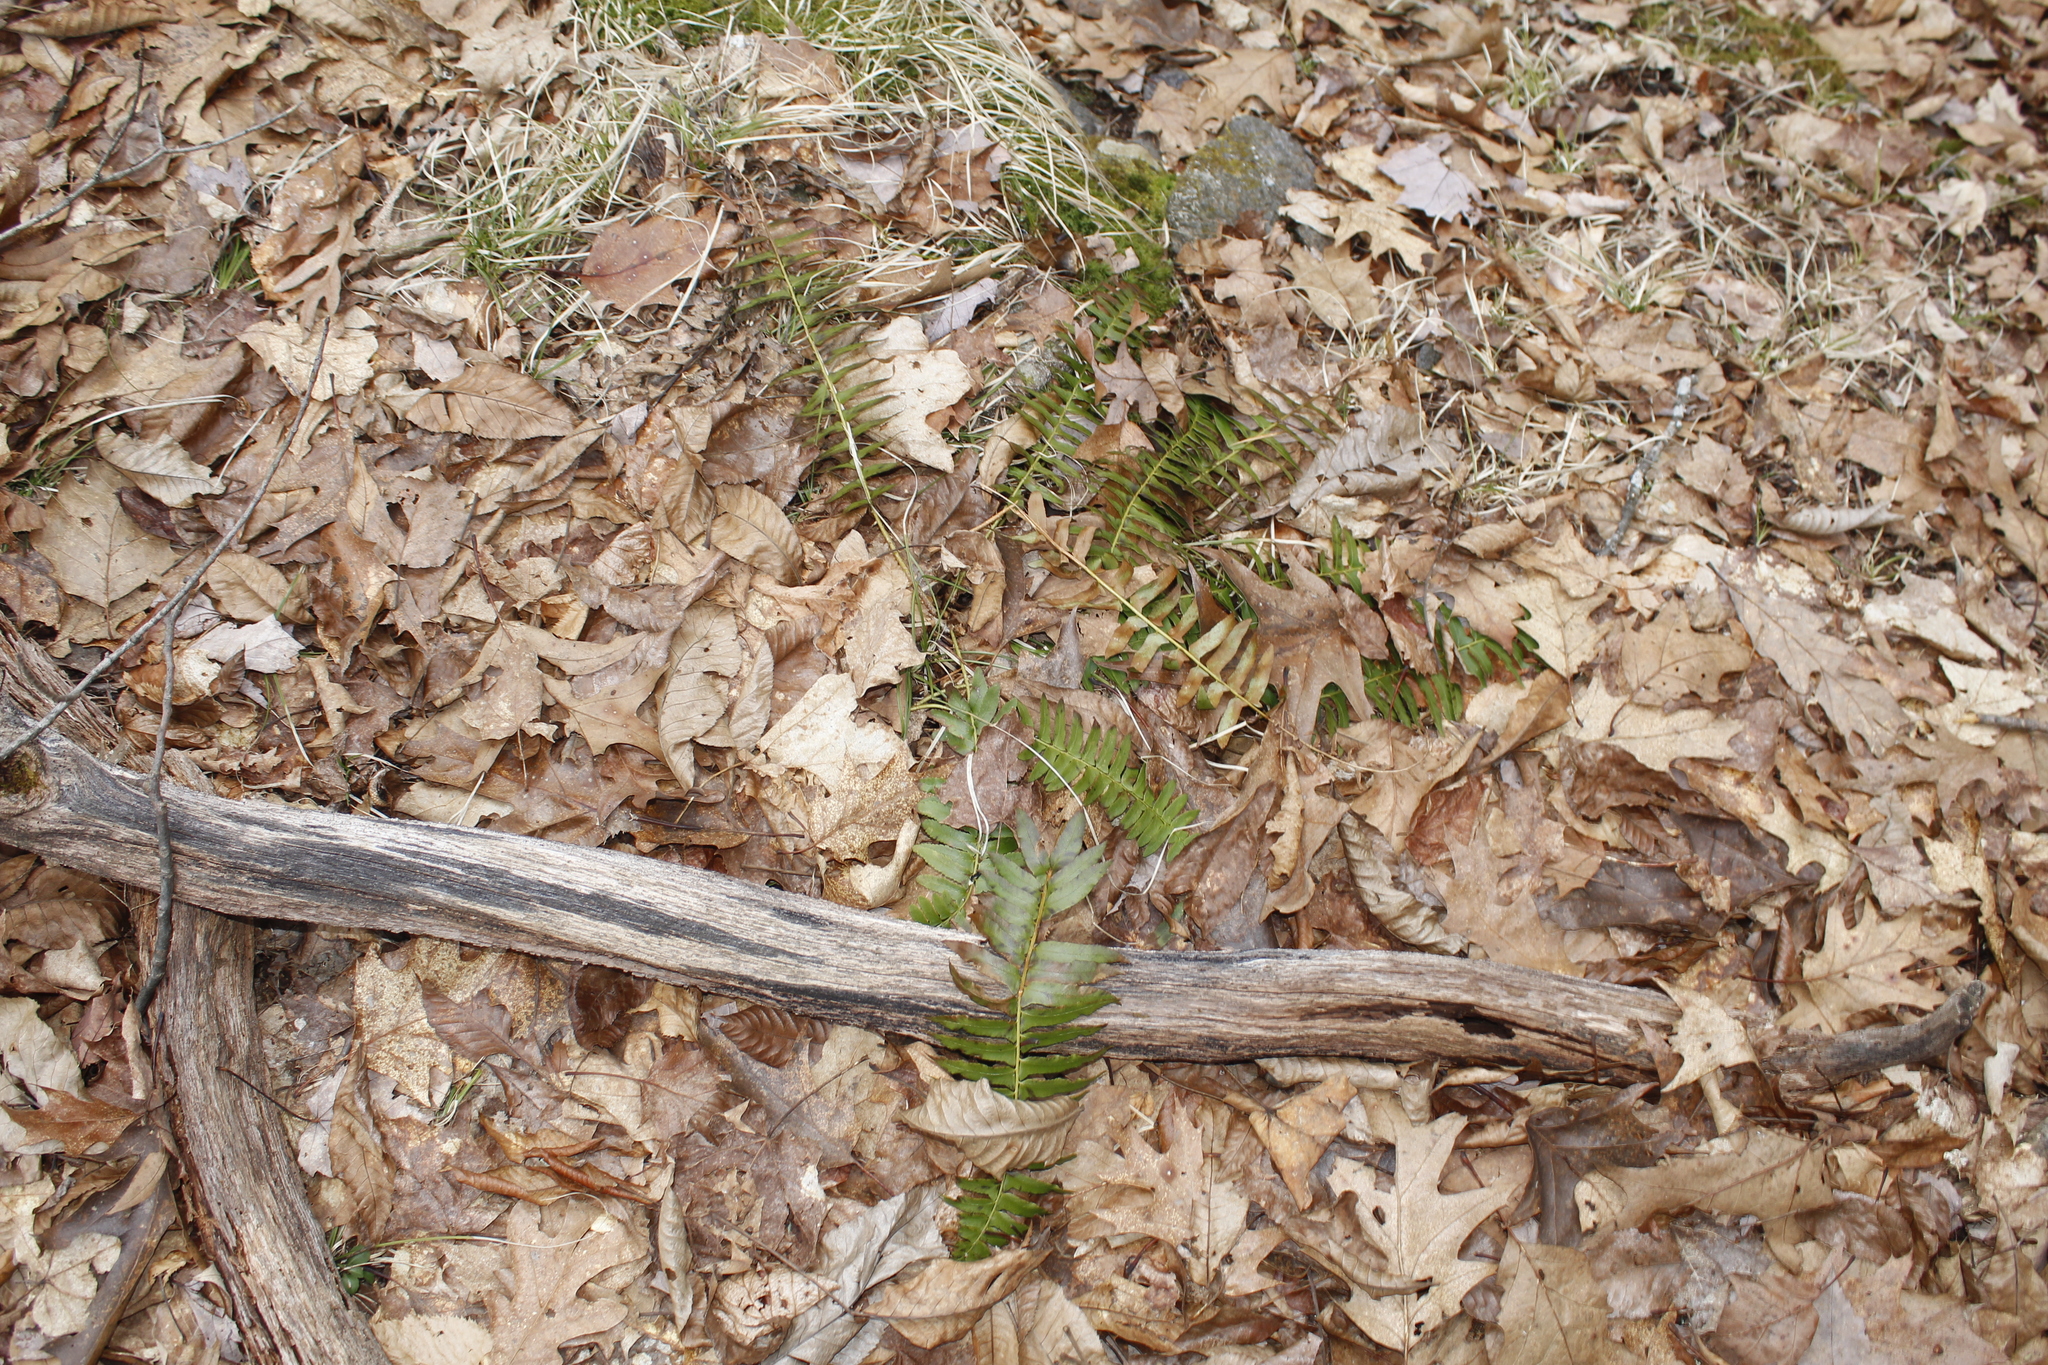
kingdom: Plantae
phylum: Tracheophyta
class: Polypodiopsida
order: Polypodiales
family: Dryopteridaceae
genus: Polystichum
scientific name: Polystichum acrostichoides
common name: Christmas fern
